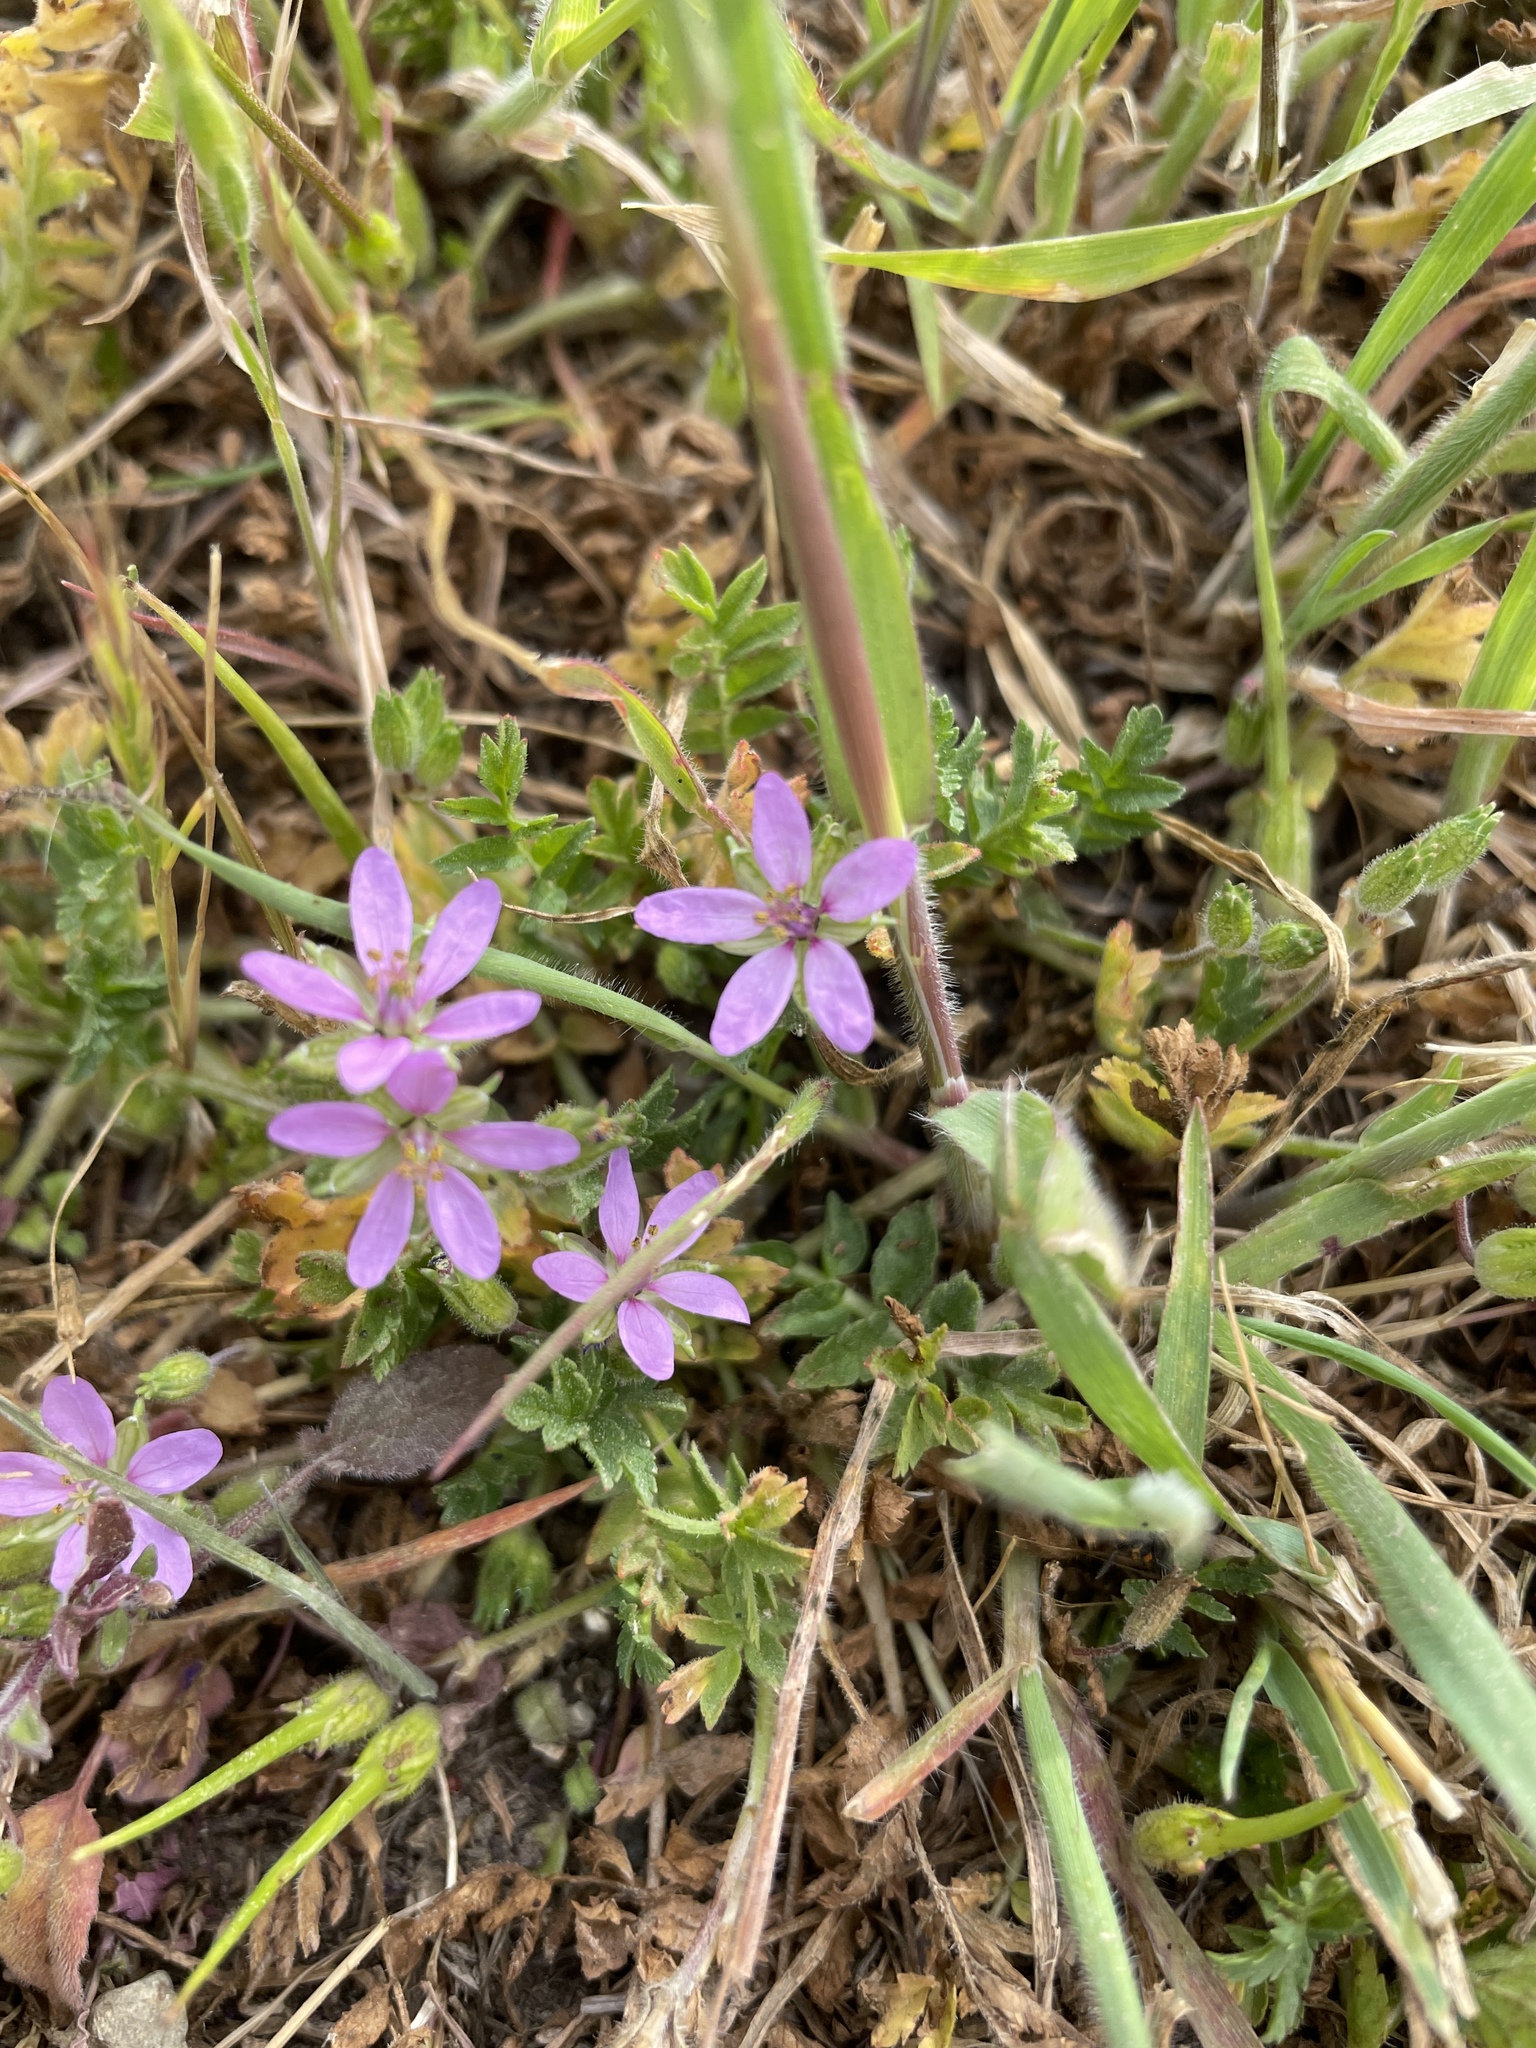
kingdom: Plantae
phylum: Tracheophyta
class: Magnoliopsida
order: Geraniales
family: Geraniaceae
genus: Erodium
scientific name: Erodium moschatum
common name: Musk stork's-bill
